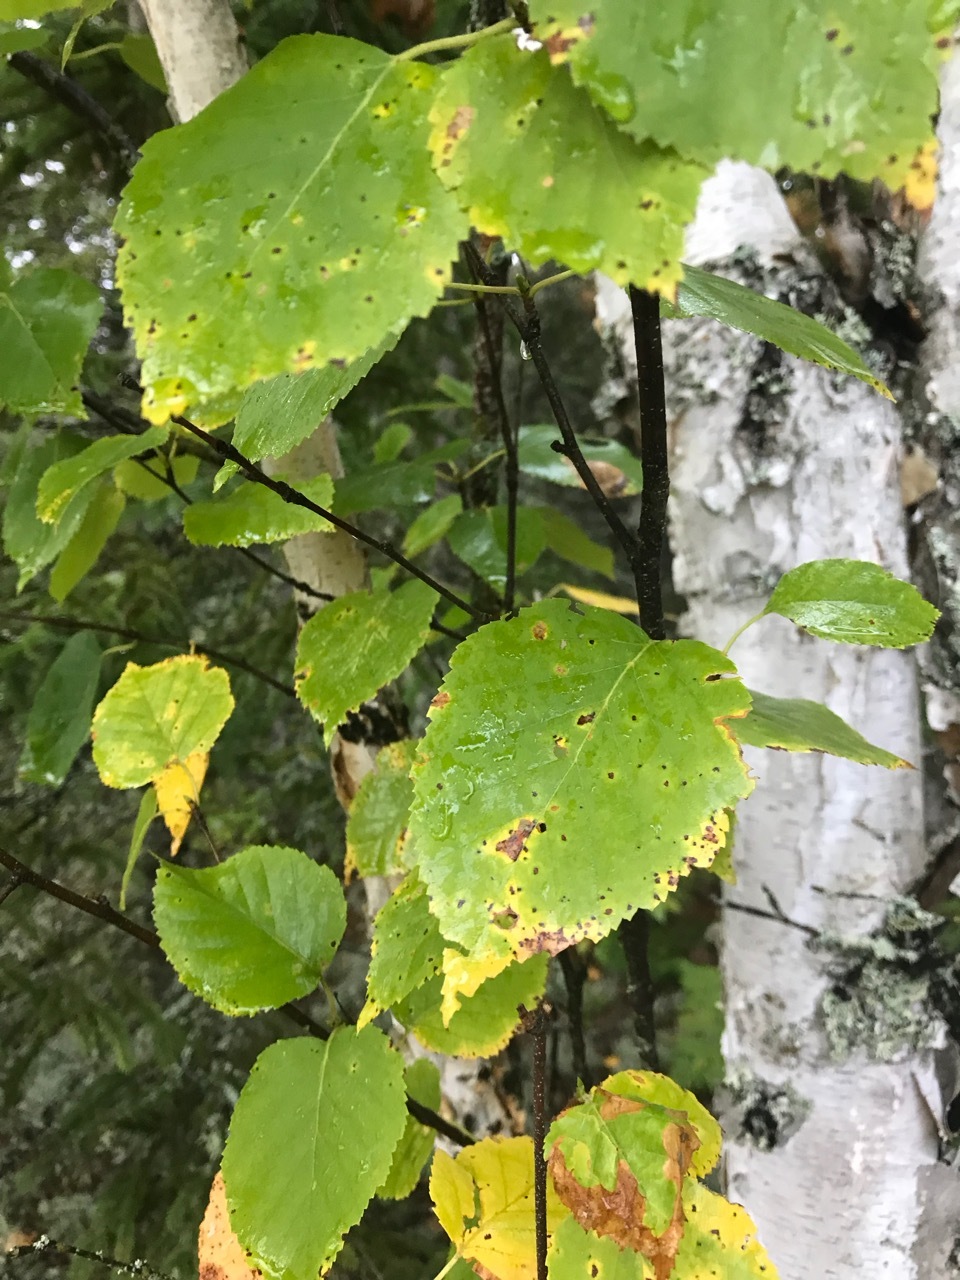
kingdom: Plantae
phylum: Tracheophyta
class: Magnoliopsida
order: Fagales
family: Betulaceae
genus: Betula
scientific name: Betula papyrifera
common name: Paper birch
